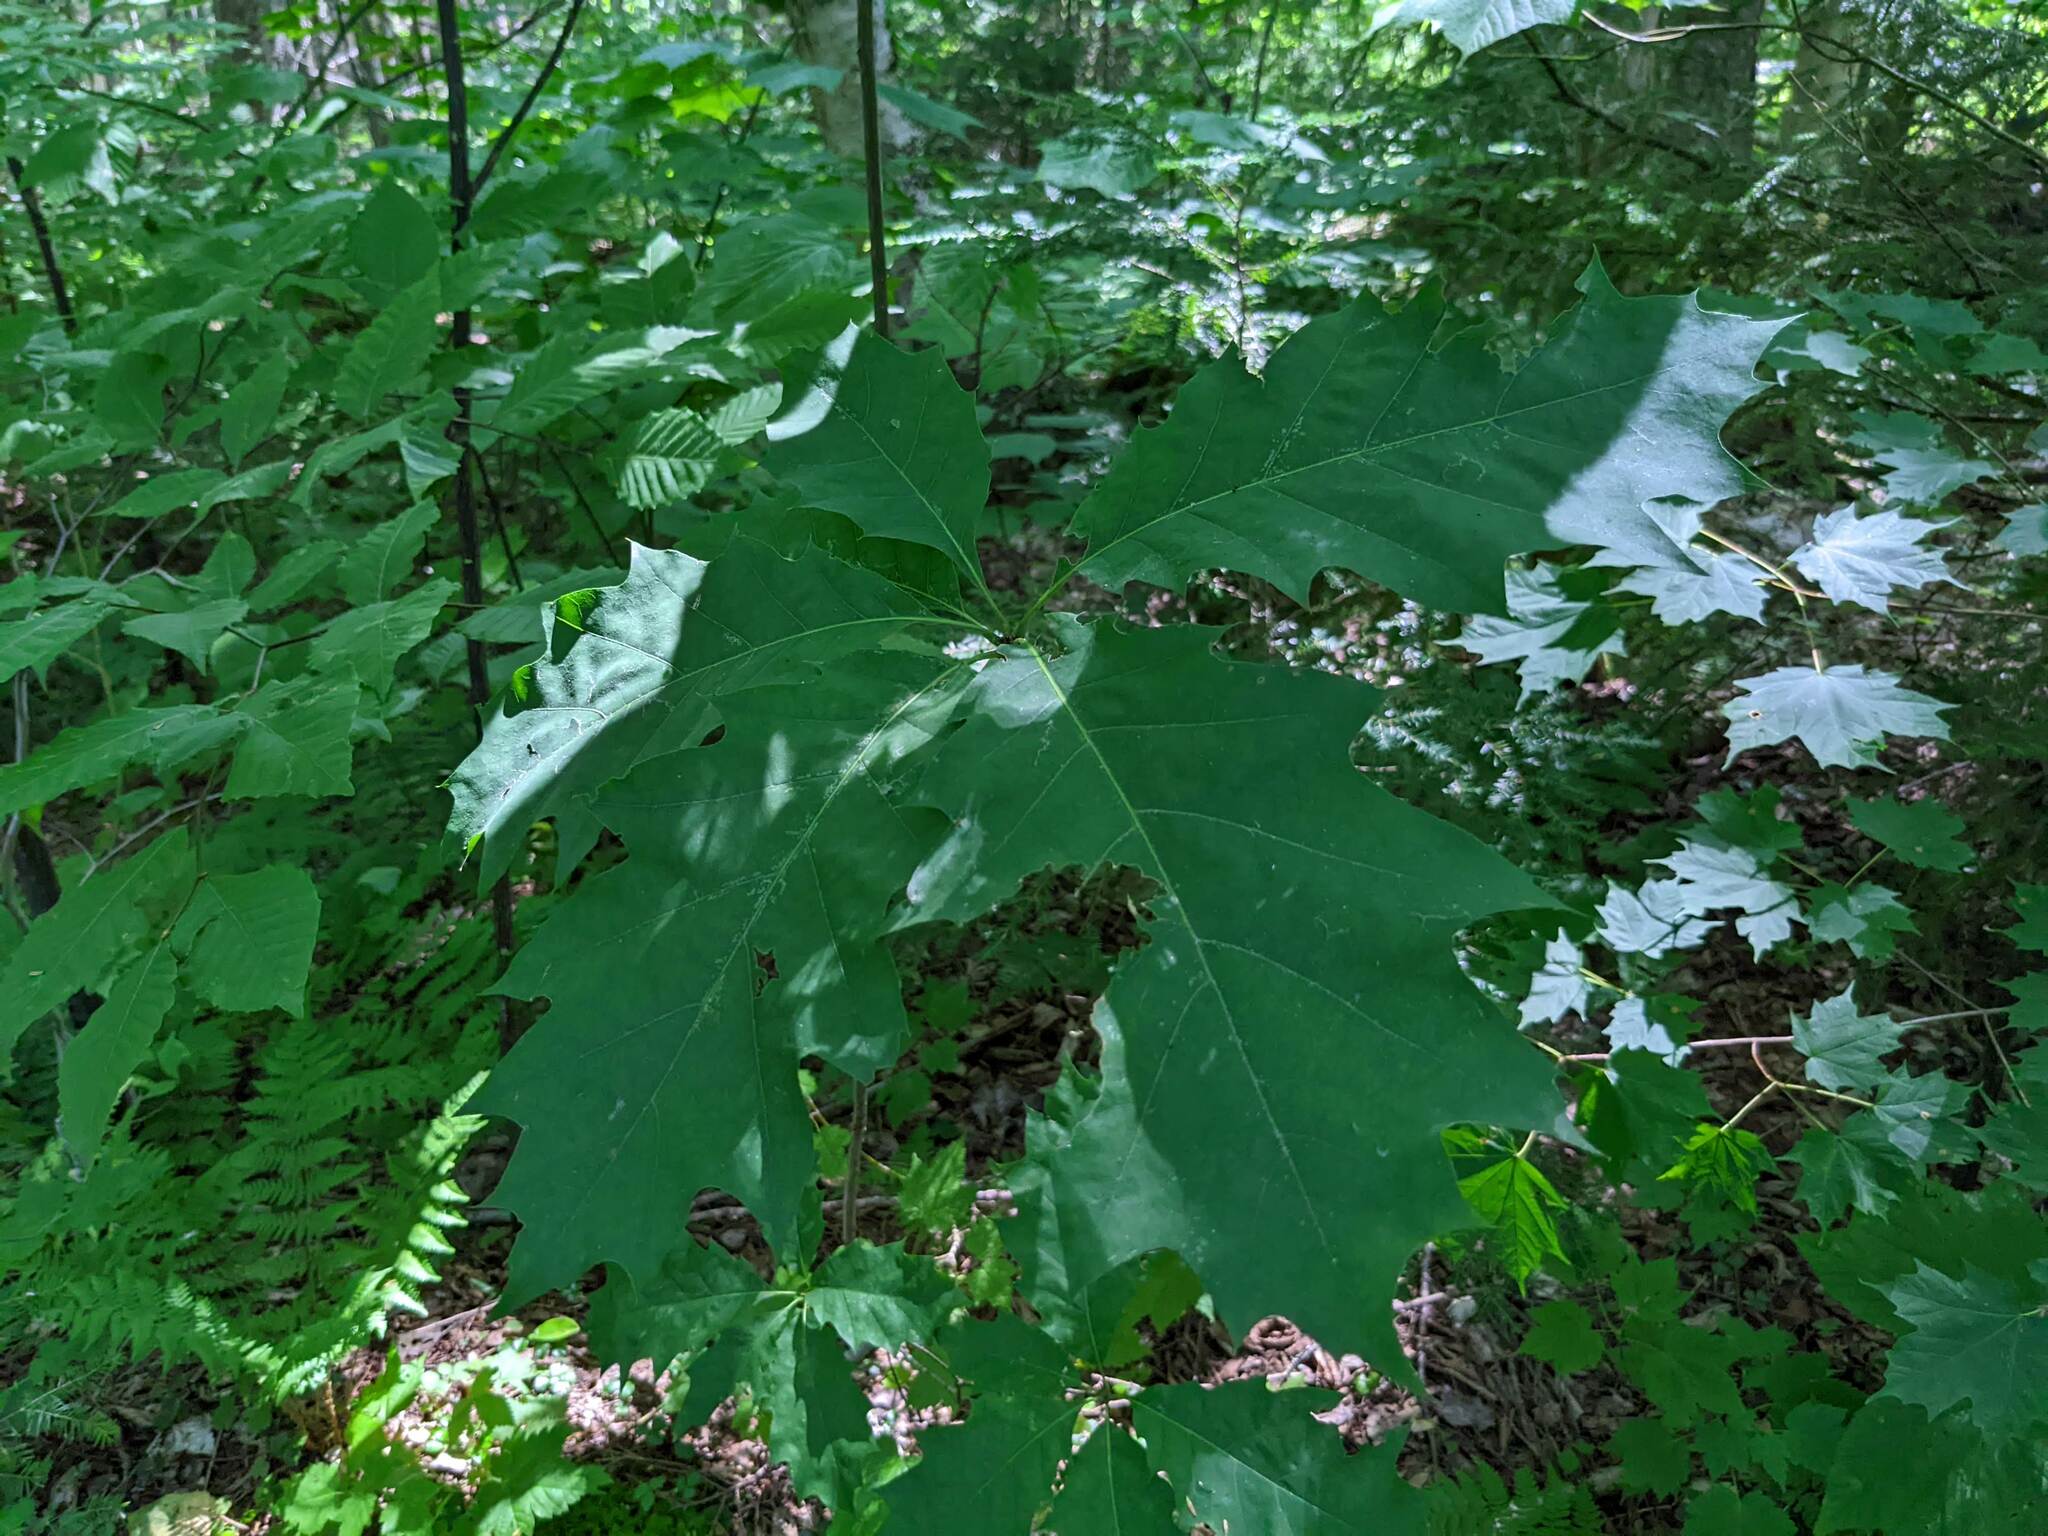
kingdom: Plantae
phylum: Tracheophyta
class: Magnoliopsida
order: Fagales
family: Fagaceae
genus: Quercus
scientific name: Quercus rubra
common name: Red oak
